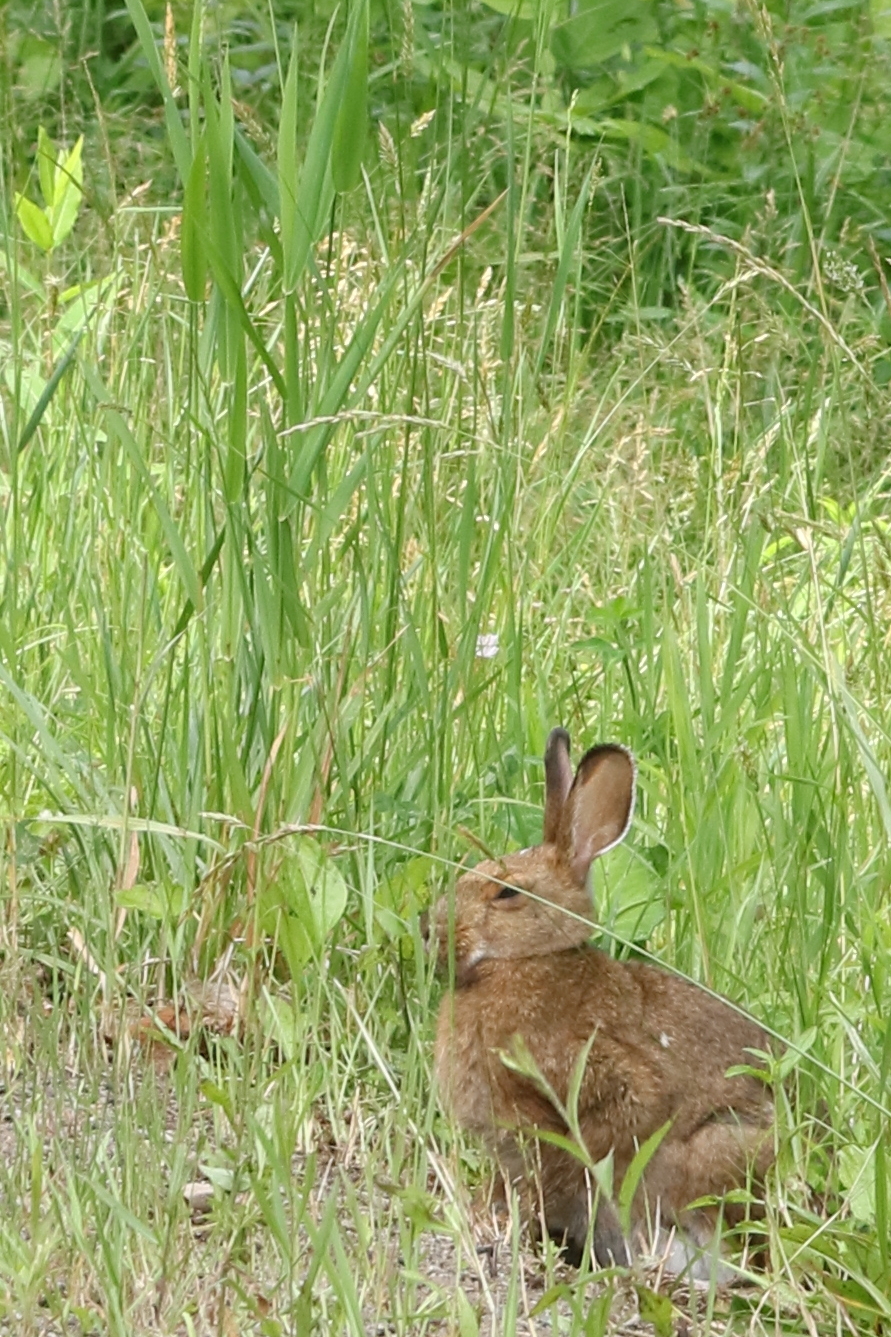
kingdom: Animalia
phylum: Chordata
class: Mammalia
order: Lagomorpha
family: Leporidae
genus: Lepus
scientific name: Lepus americanus
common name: Snowshoe hare
